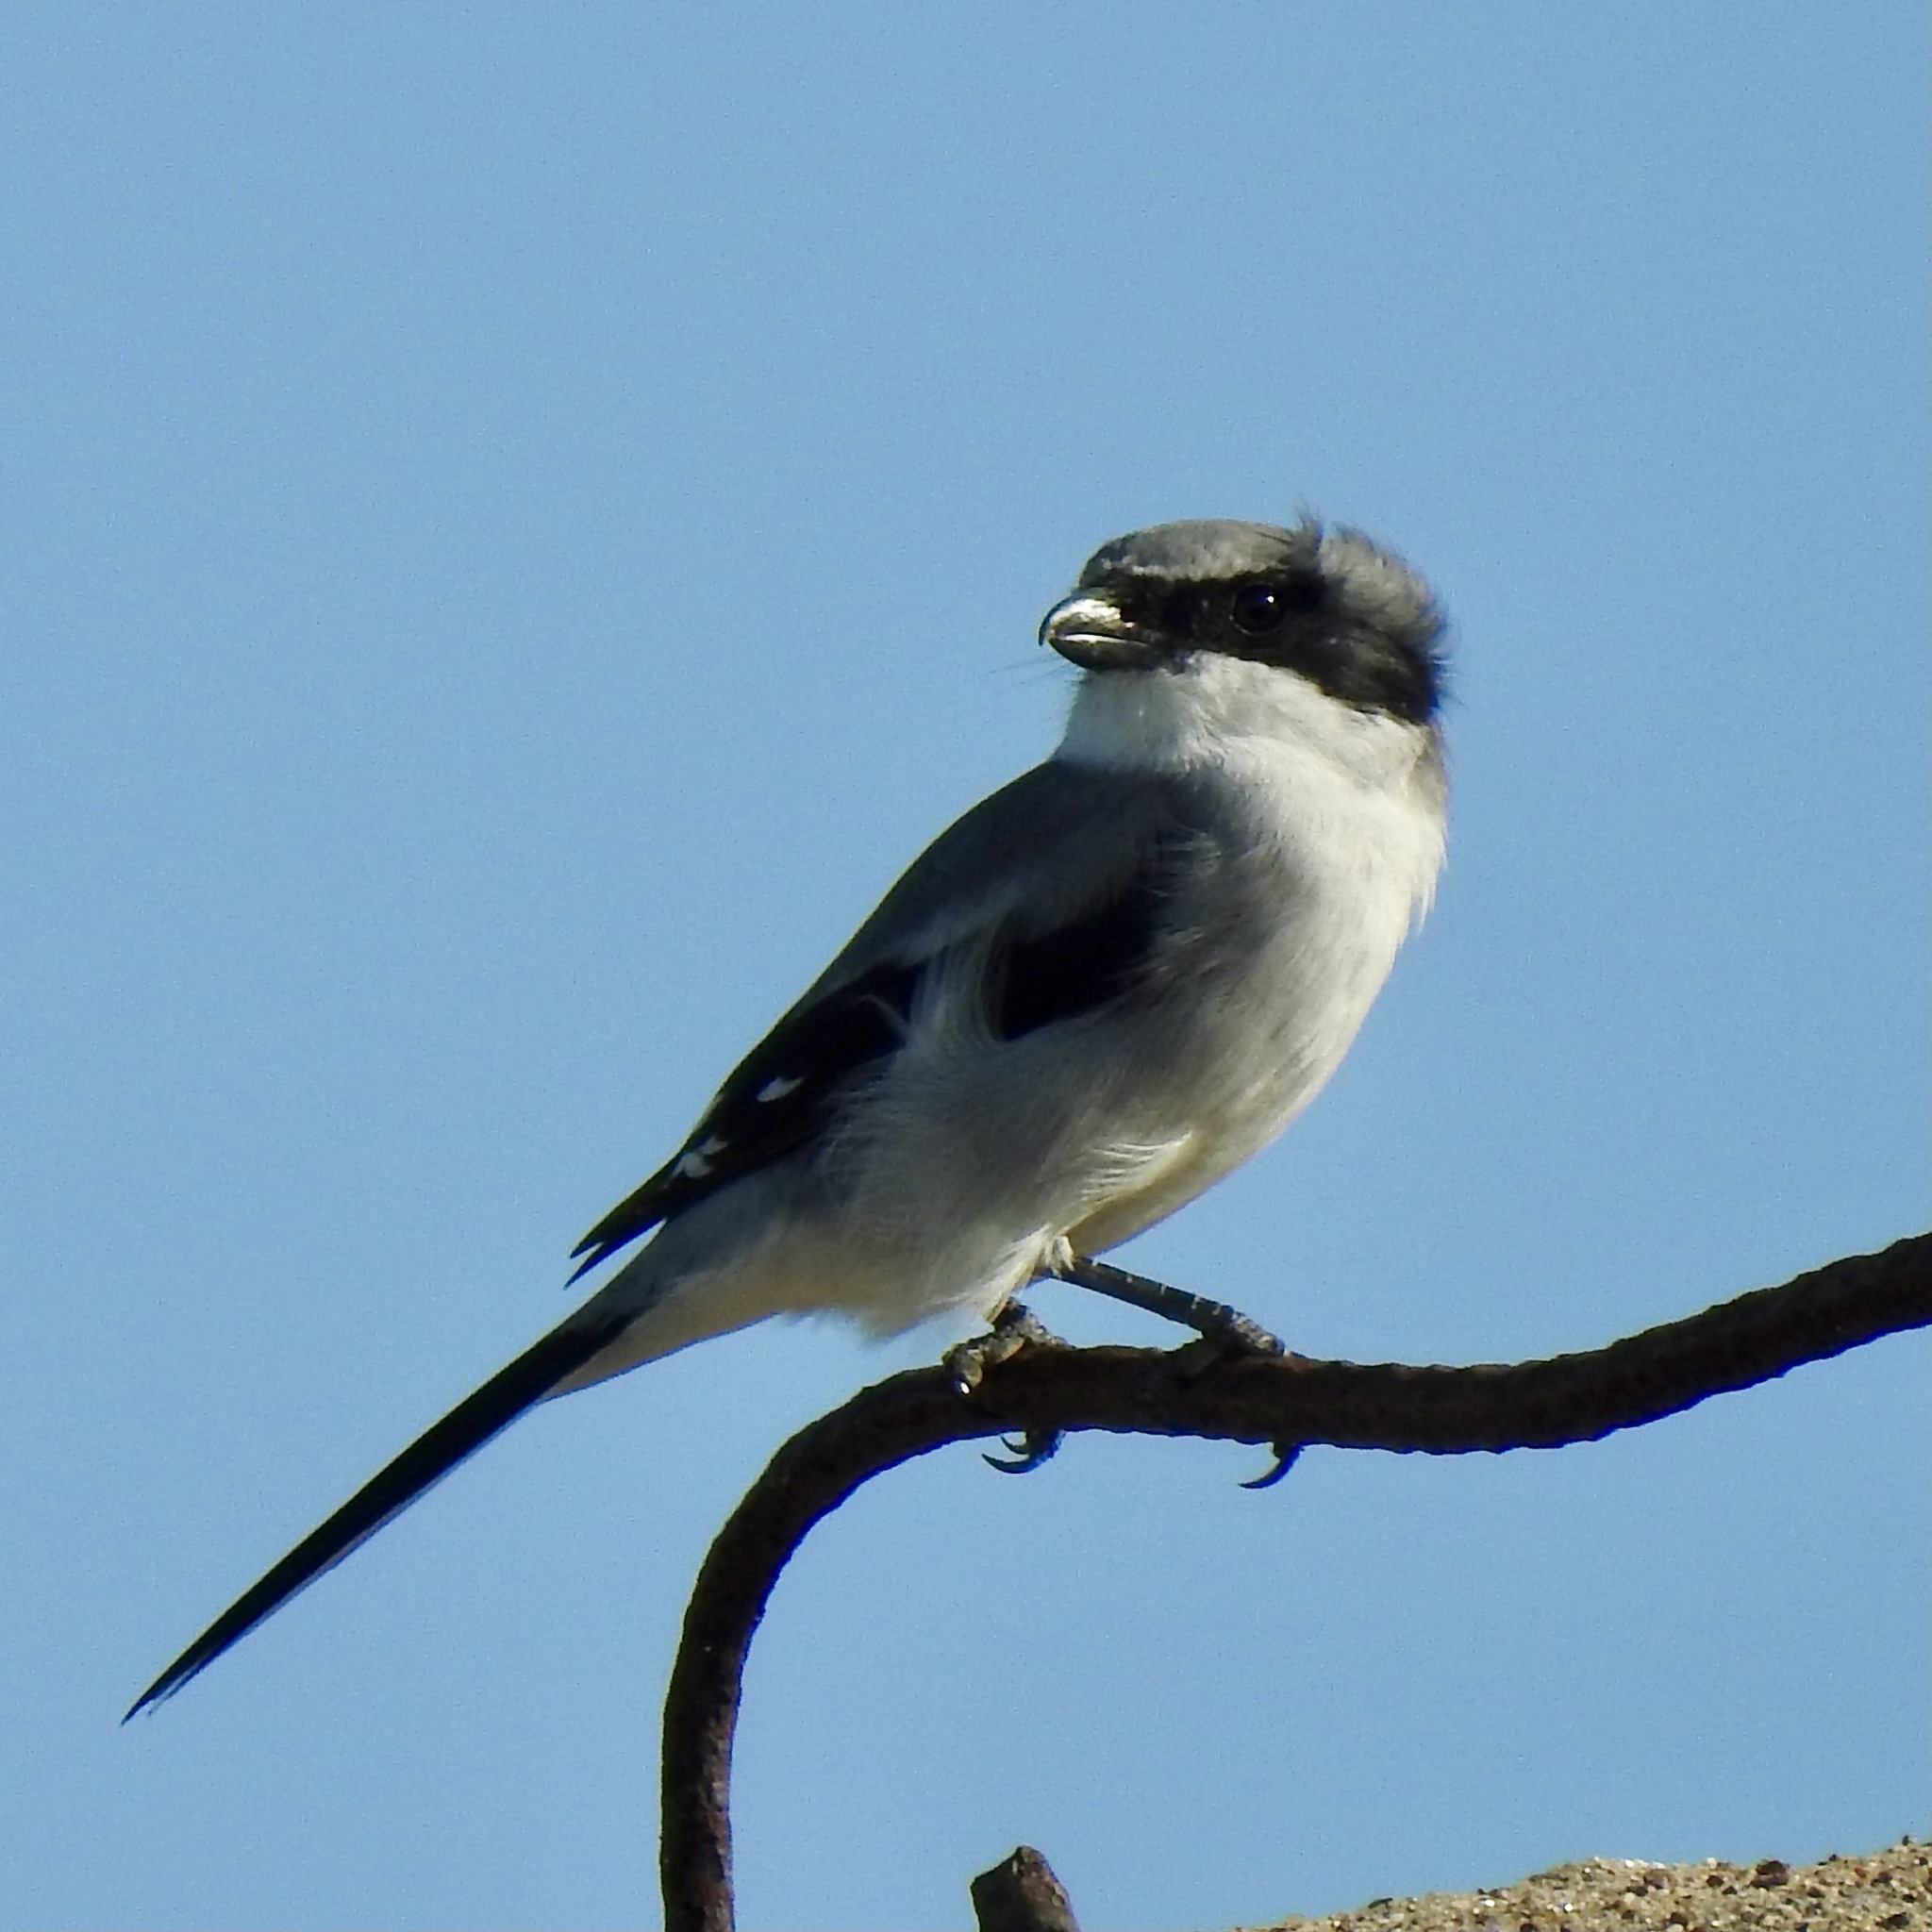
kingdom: Animalia
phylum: Chordata
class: Aves
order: Passeriformes
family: Laniidae
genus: Lanius
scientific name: Lanius ludovicianus
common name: Loggerhead shrike
